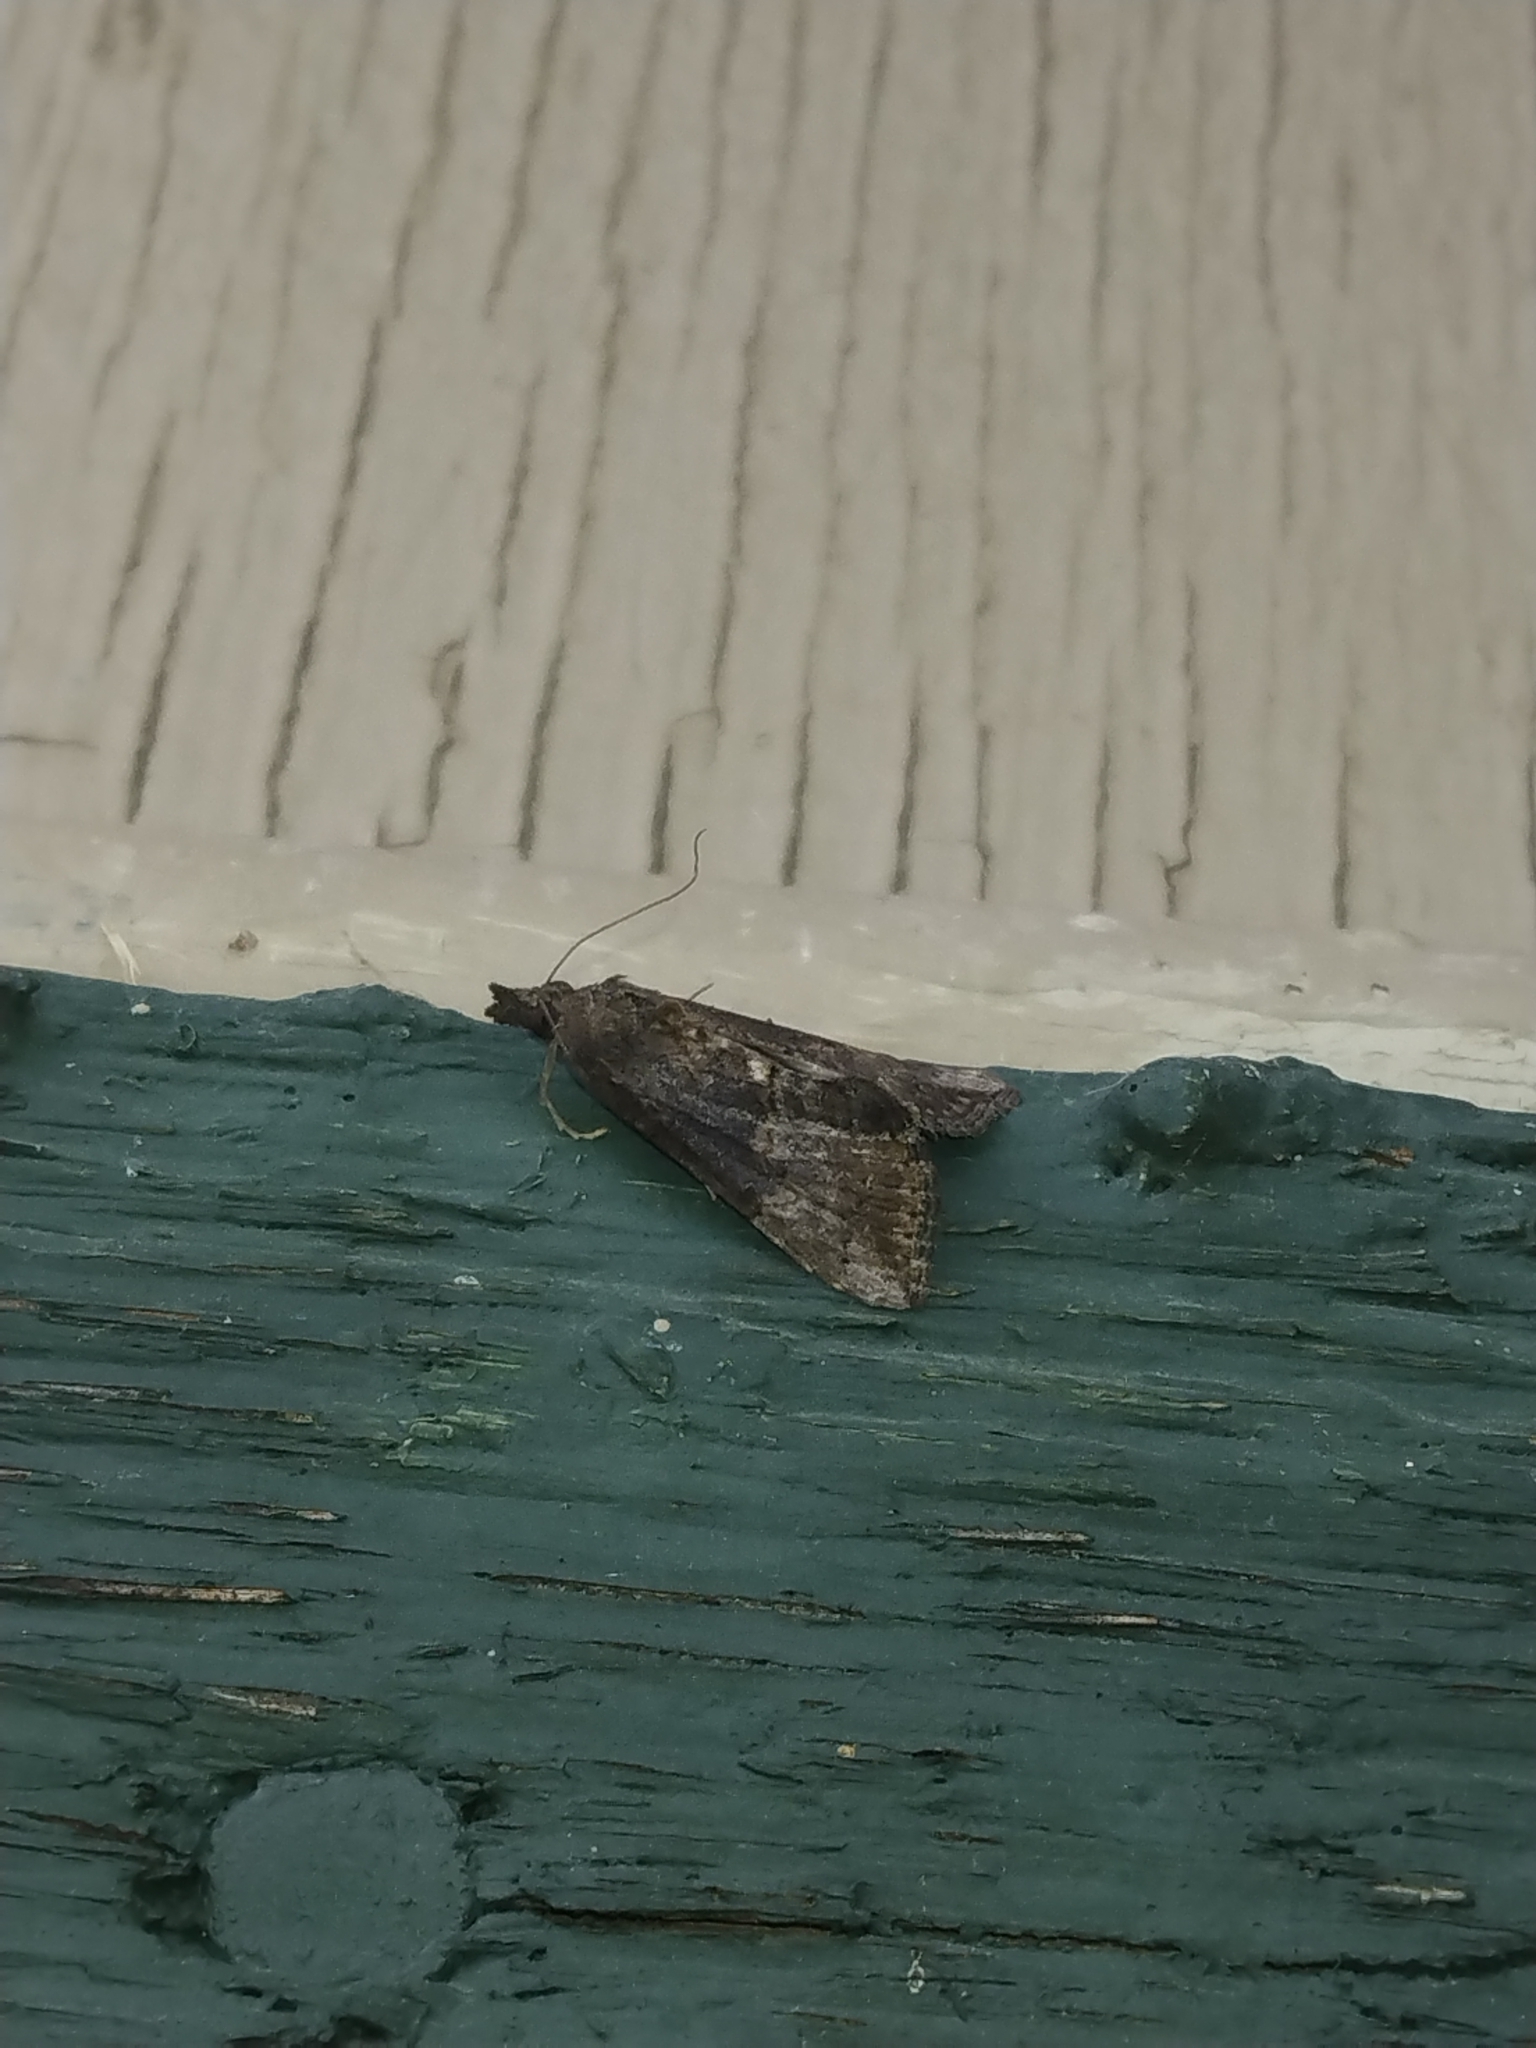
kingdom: Animalia
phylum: Arthropoda
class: Insecta
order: Lepidoptera
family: Erebidae
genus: Hypena
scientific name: Hypena scabra
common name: Green cloverworm
